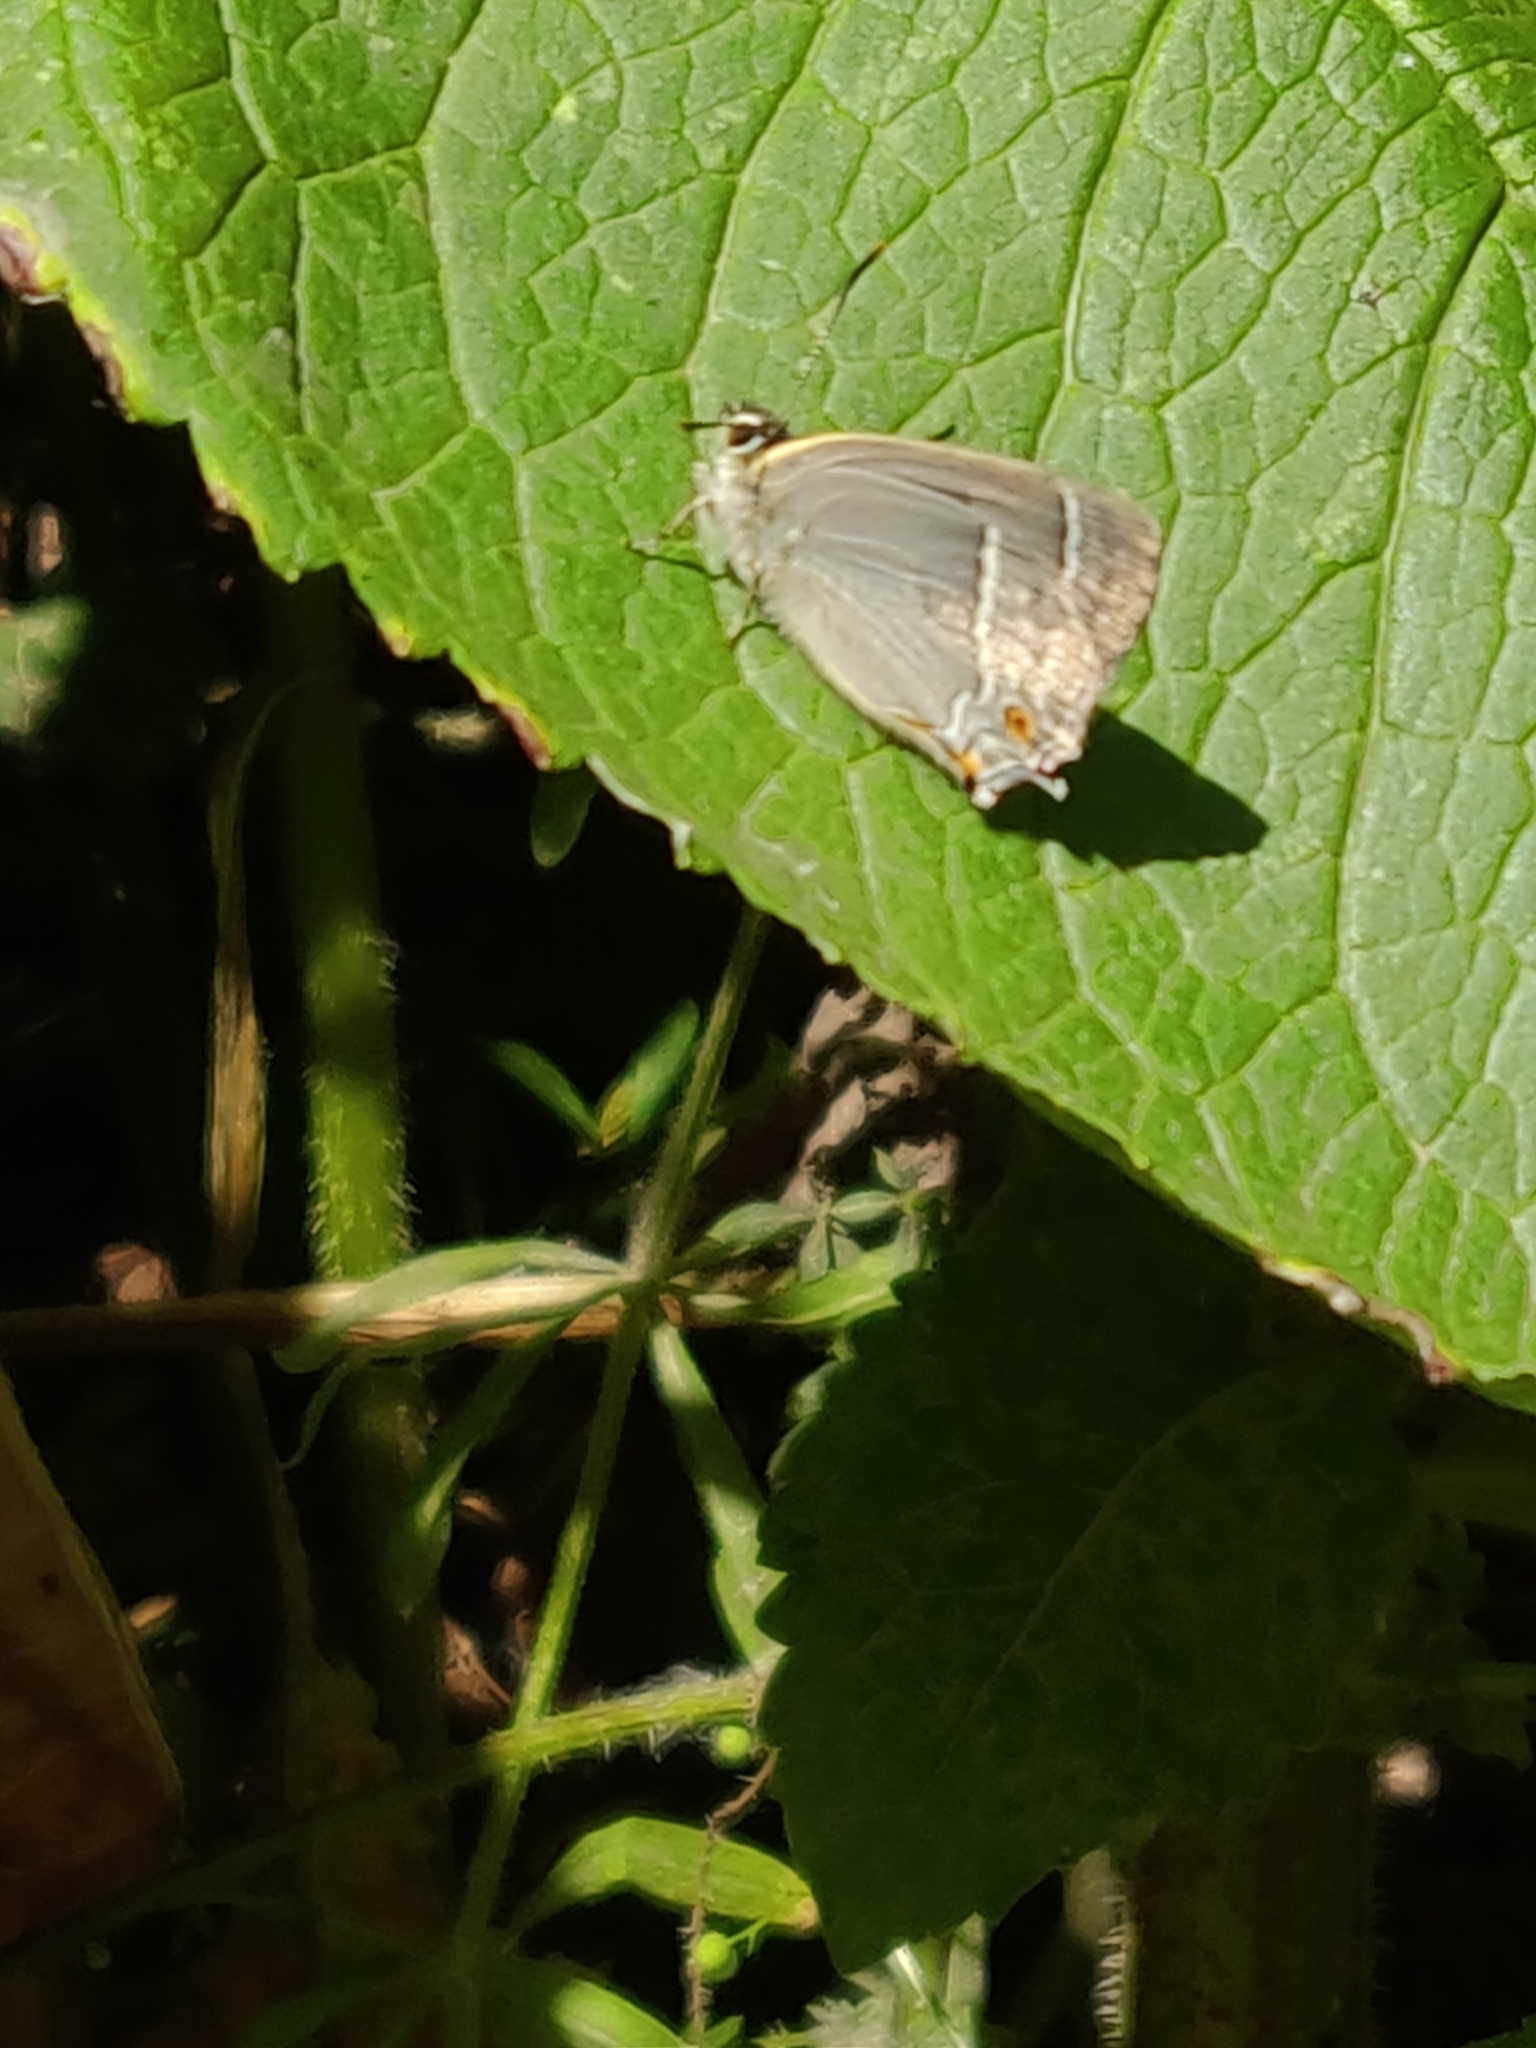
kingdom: Animalia
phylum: Arthropoda
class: Insecta
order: Lepidoptera
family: Lycaenidae
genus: Quercusia
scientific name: Quercusia quercus
